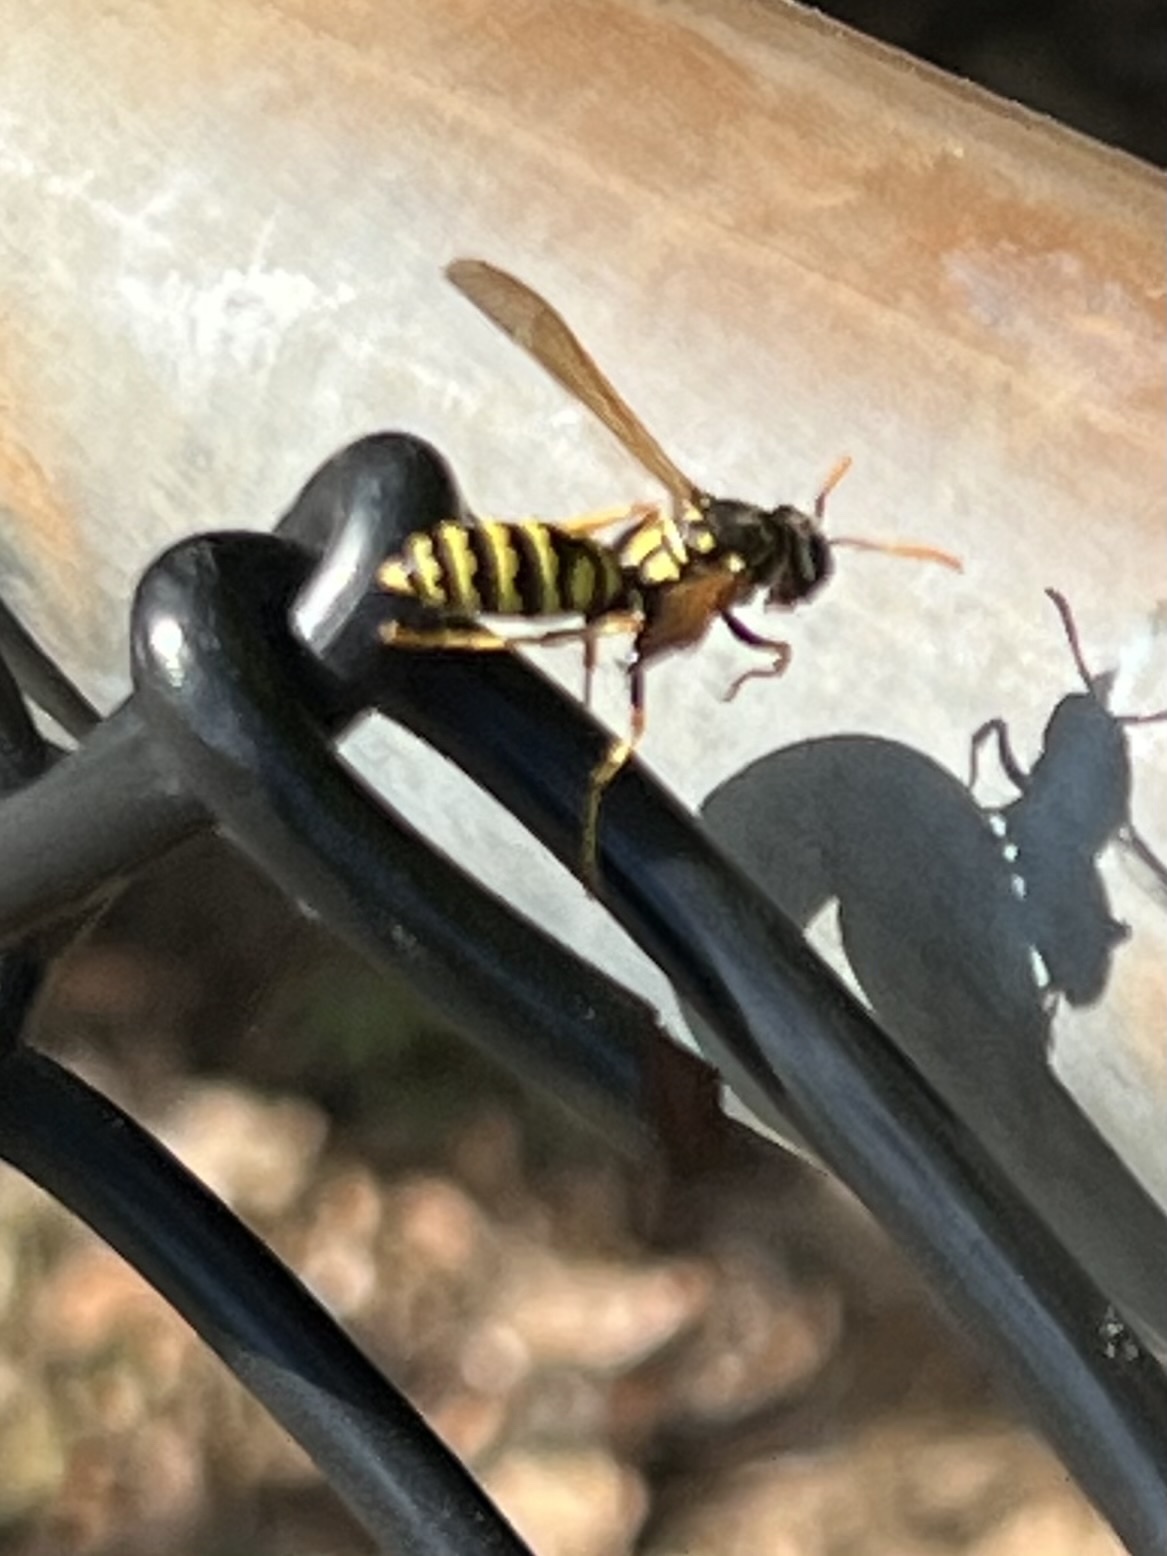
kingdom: Animalia
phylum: Arthropoda
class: Insecta
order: Hymenoptera
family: Eumenidae
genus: Polistes
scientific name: Polistes dominula
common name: Paper wasp
